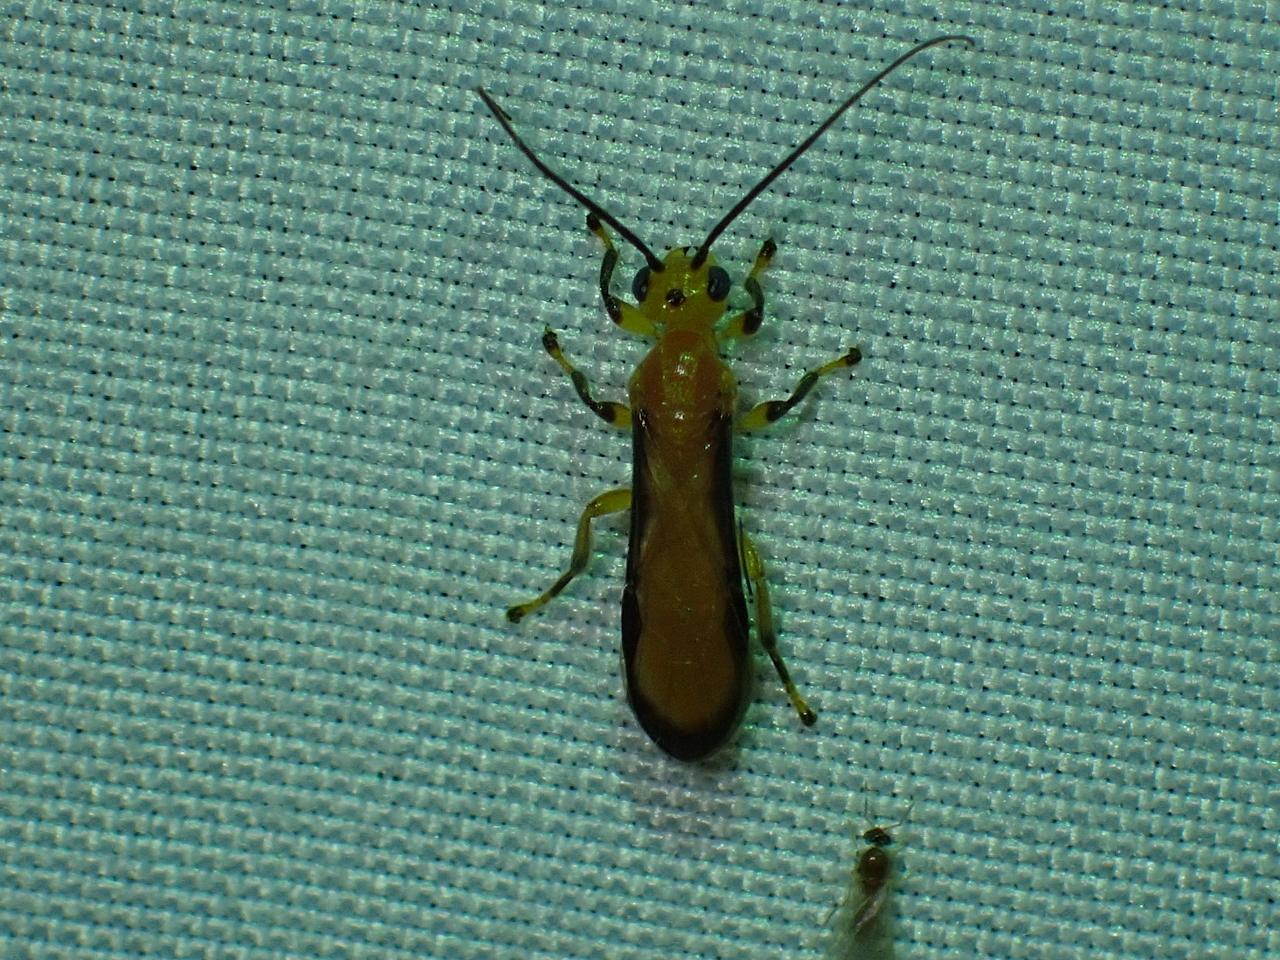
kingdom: Animalia
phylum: Arthropoda
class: Insecta
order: Hymenoptera
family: Braconidae
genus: Yelicones
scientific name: Yelicones nigromarginatus
